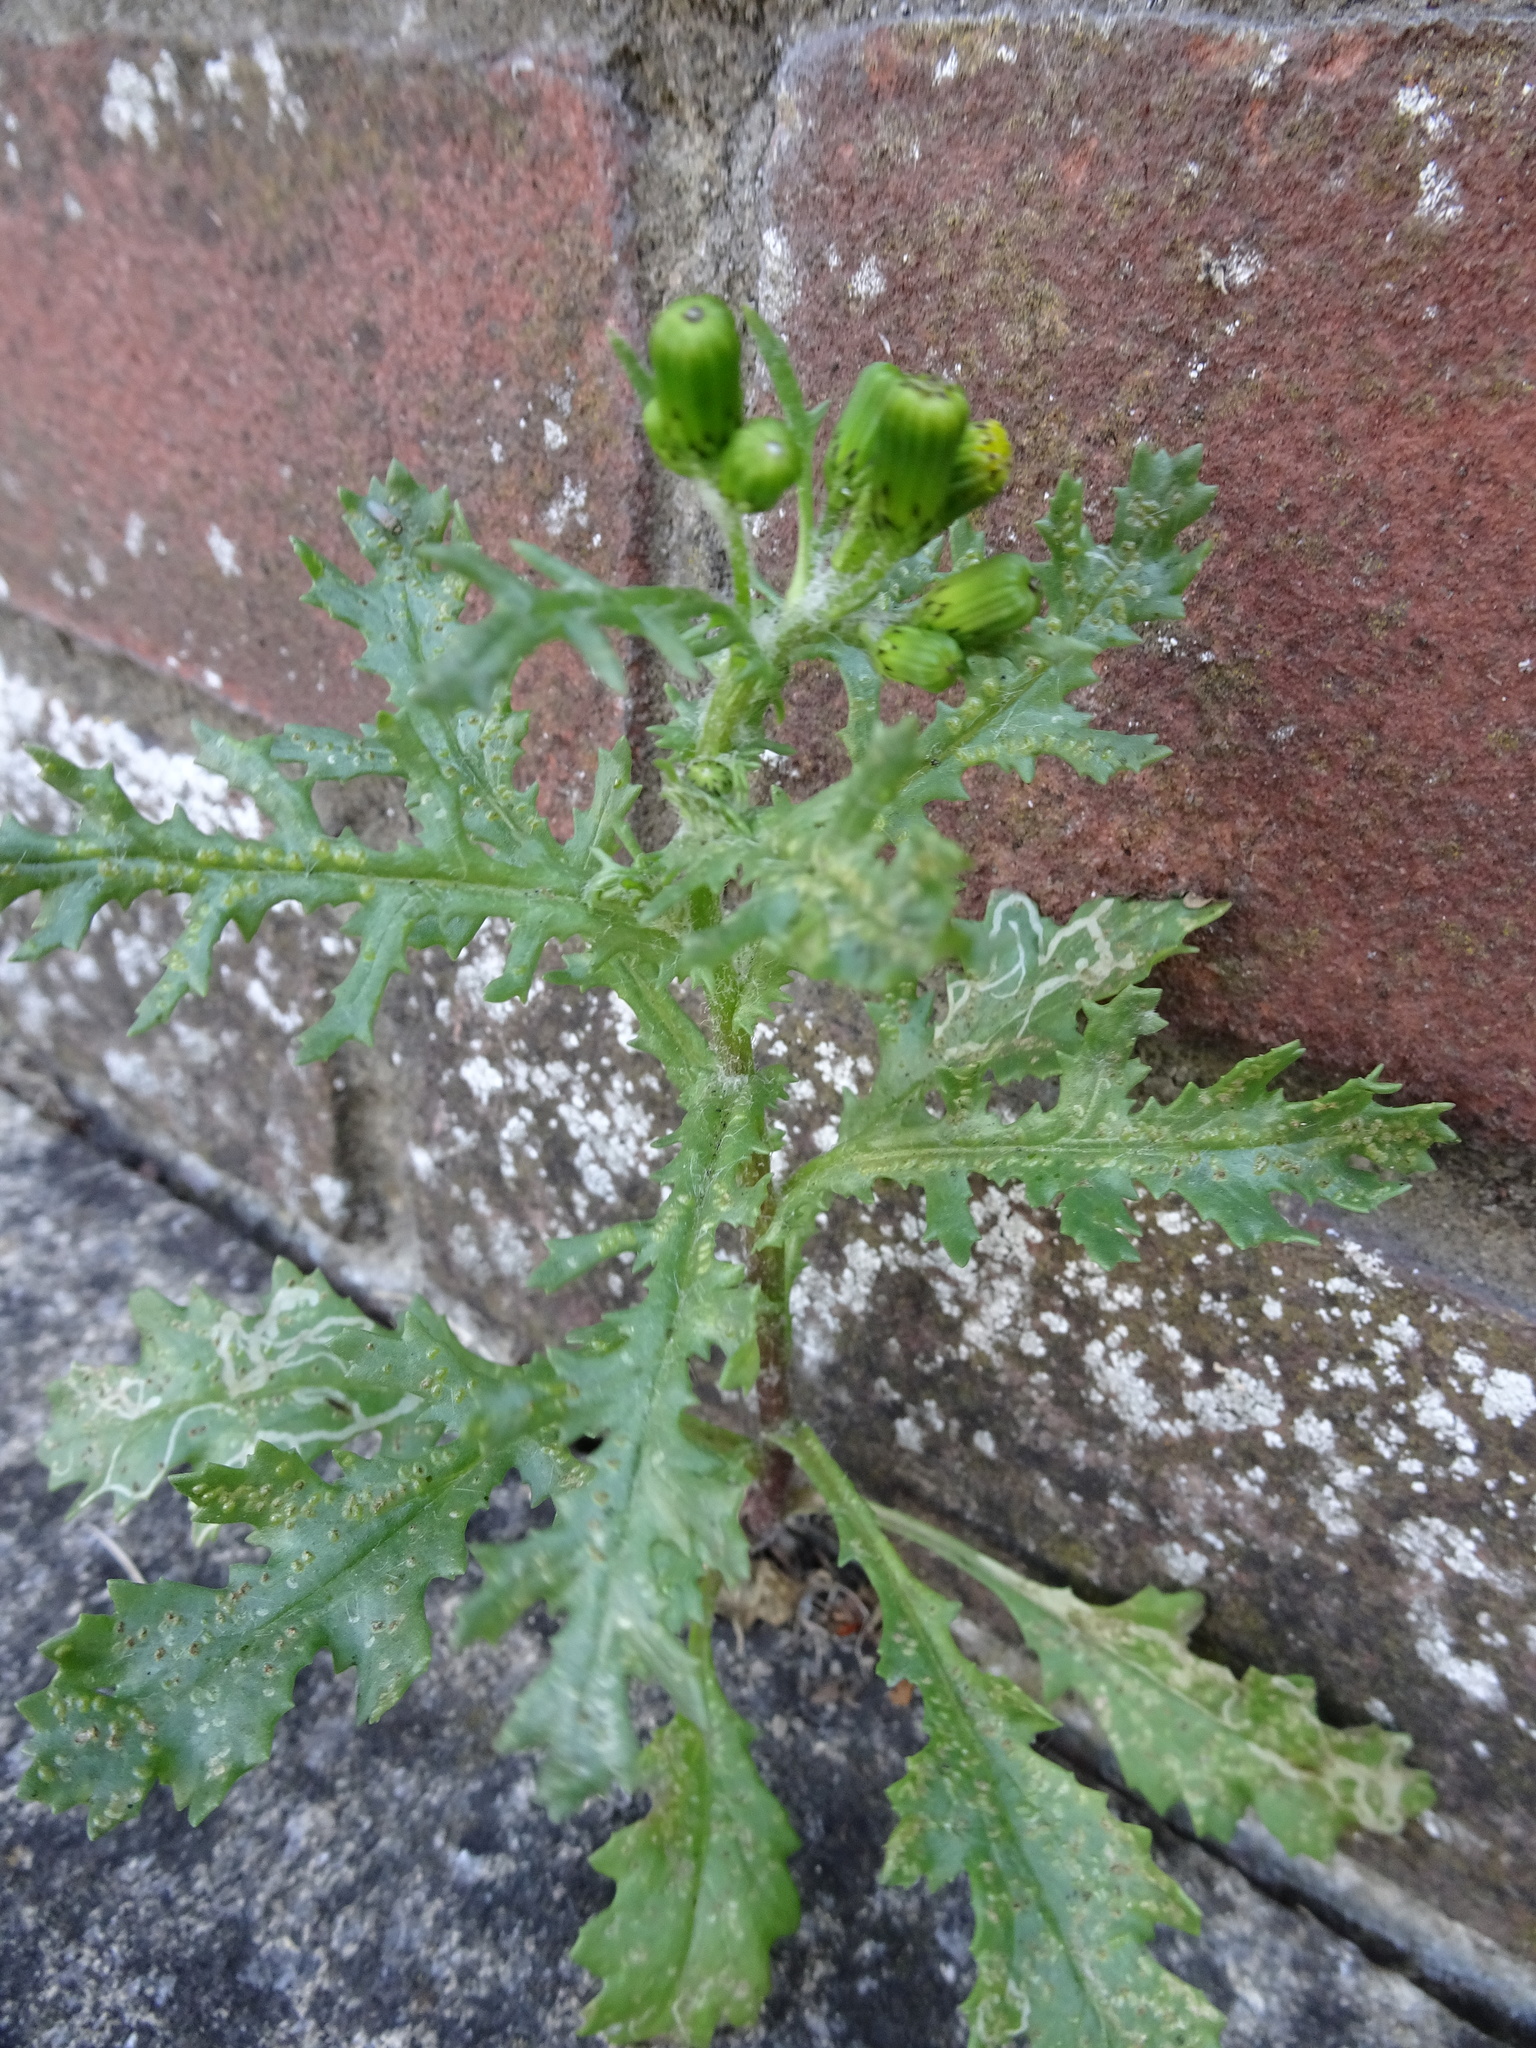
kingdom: Plantae
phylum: Tracheophyta
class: Magnoliopsida
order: Asterales
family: Asteraceae
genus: Senecio
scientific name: Senecio vulgaris
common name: Old-man-in-the-spring
